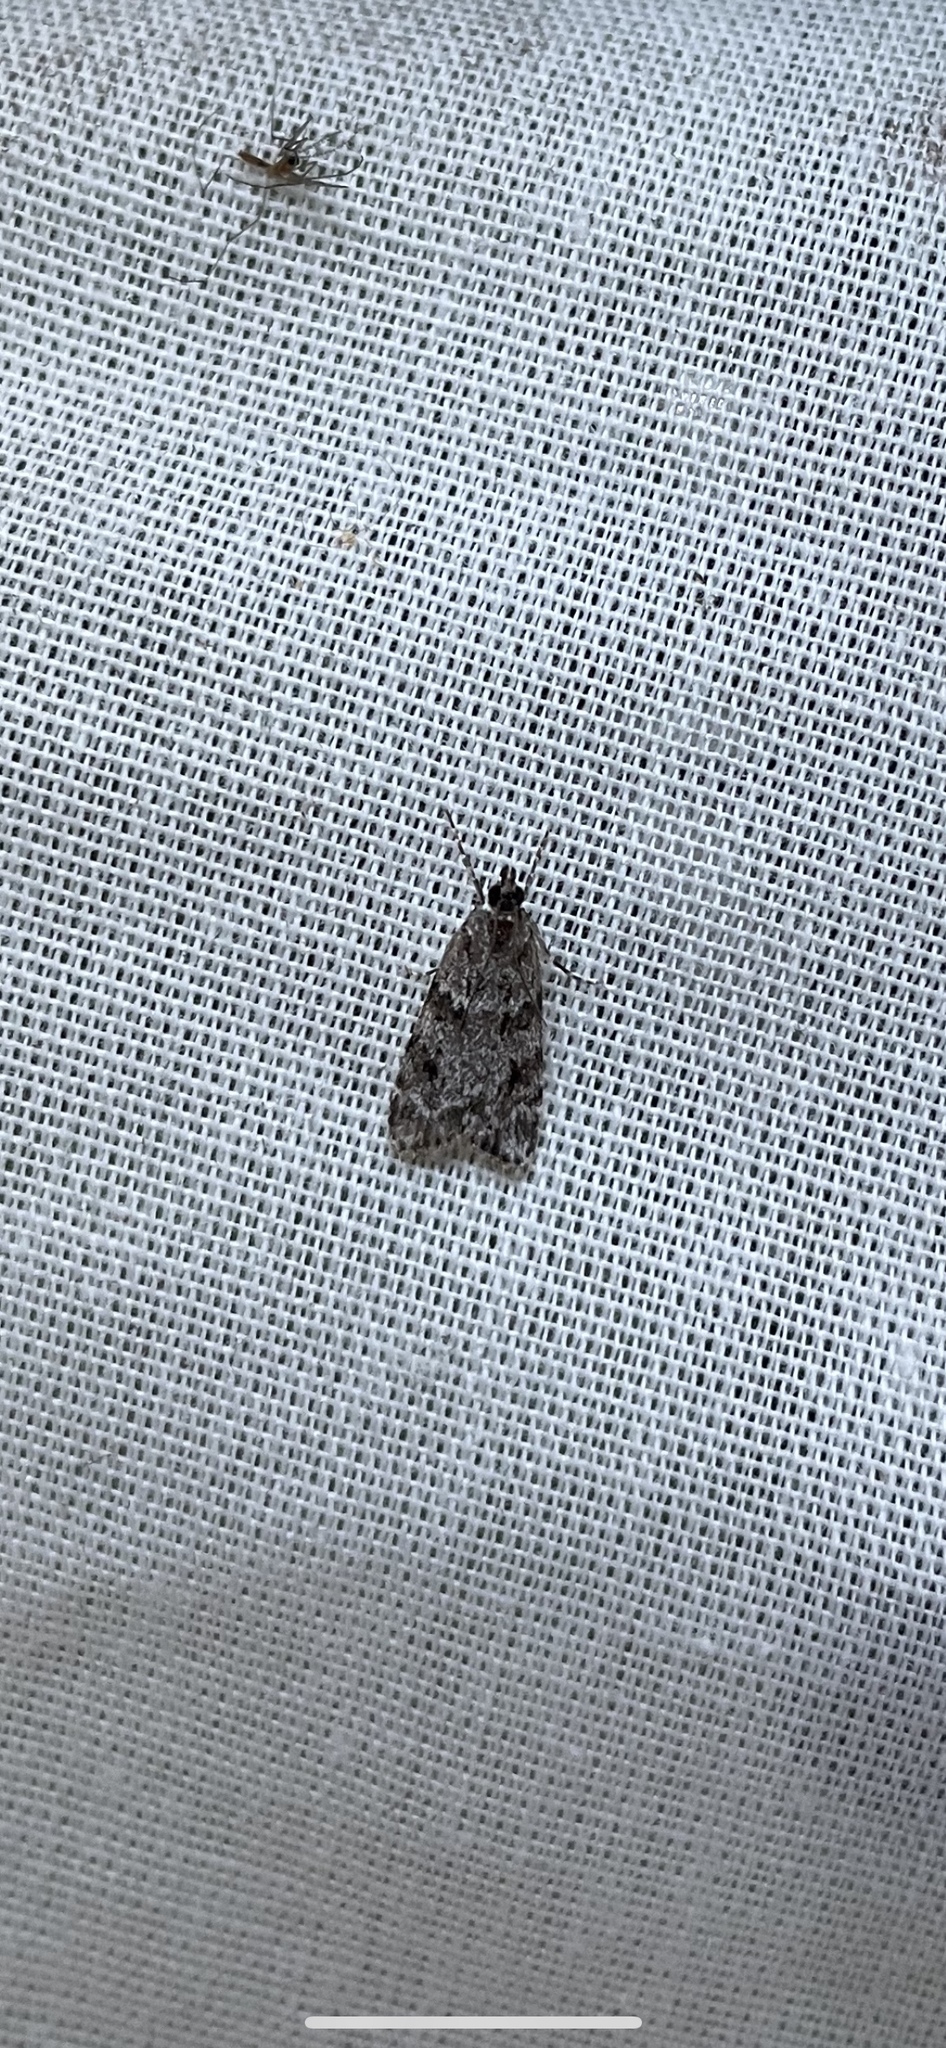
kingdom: Animalia
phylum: Arthropoda
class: Insecta
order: Lepidoptera
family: Crambidae
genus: Scoparia
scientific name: Scoparia biplagialis
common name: Double-striped scoparia moth
